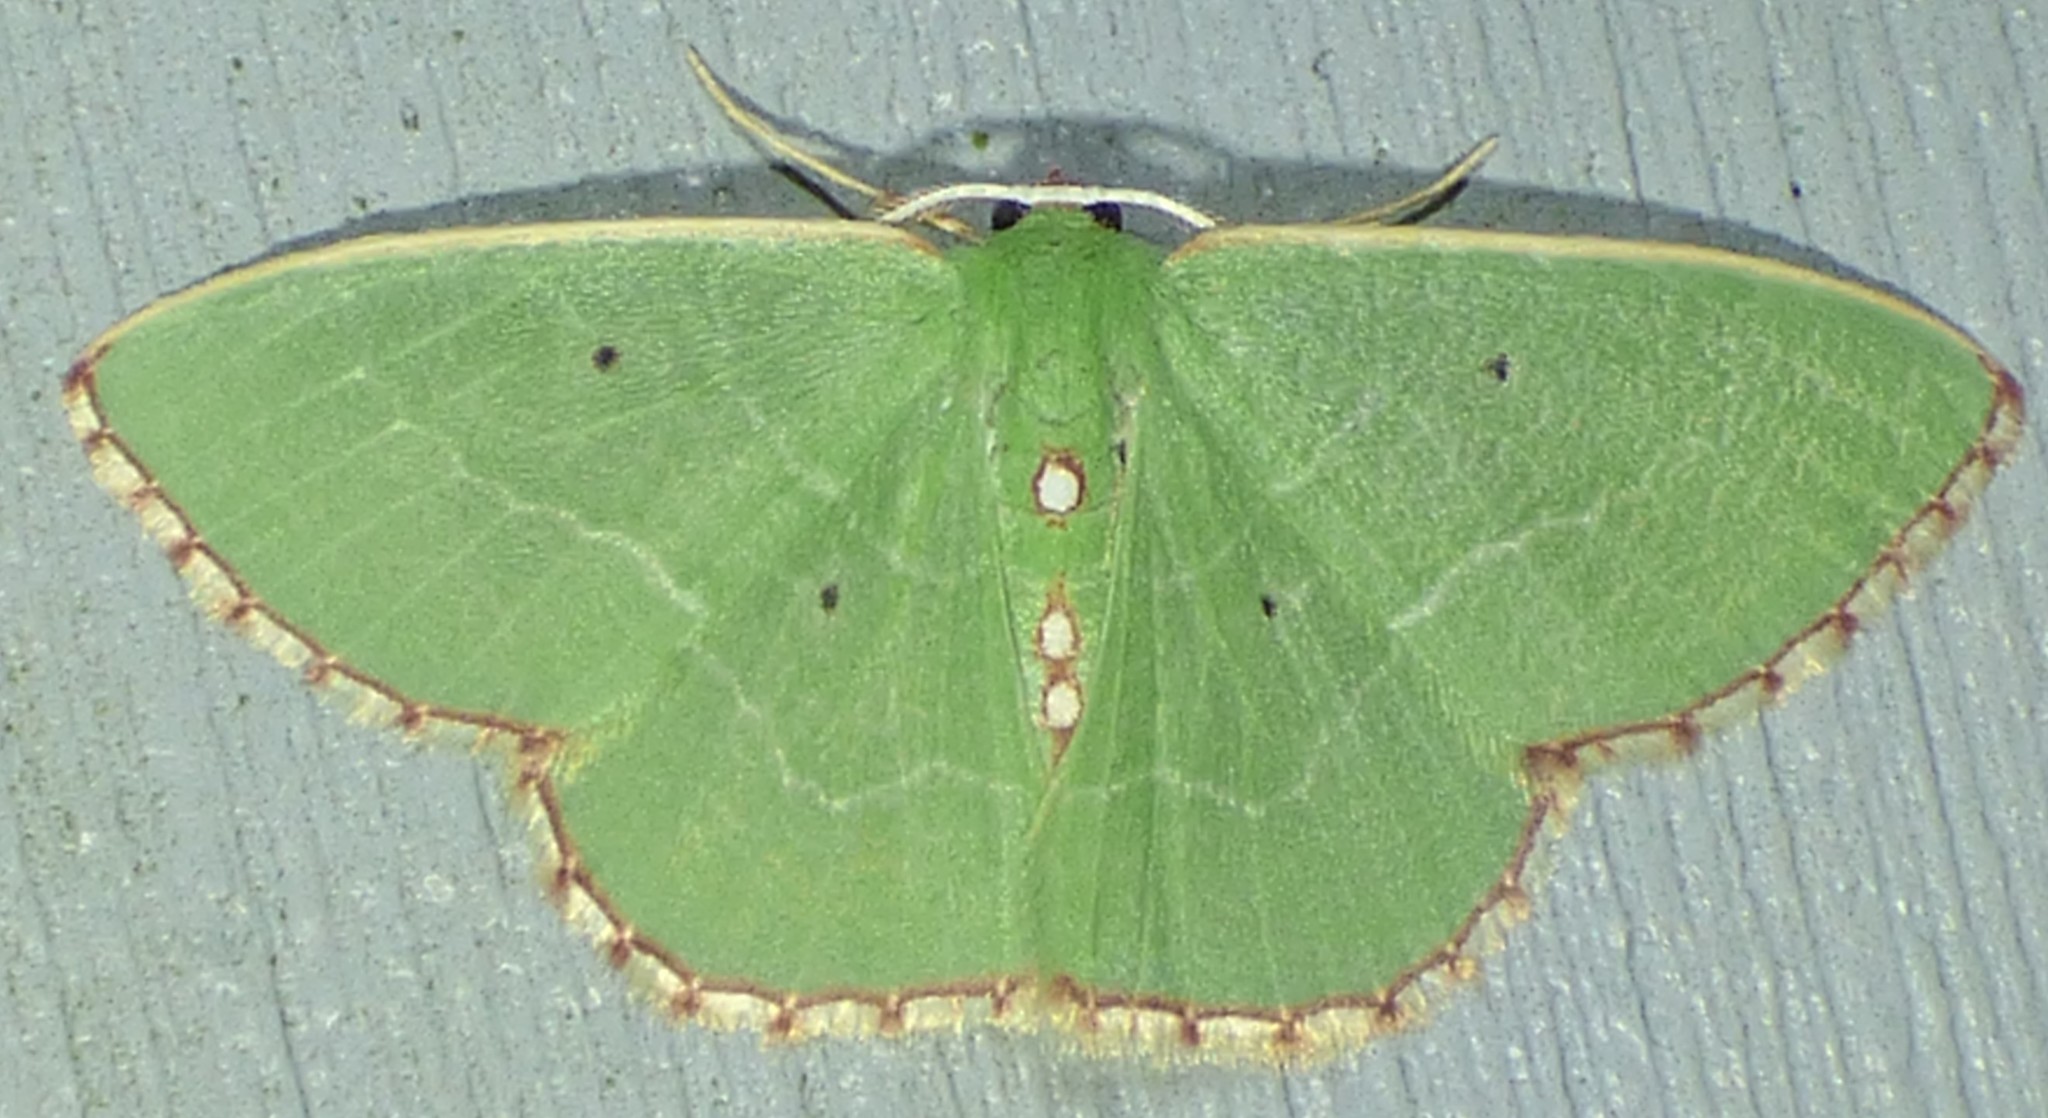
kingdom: Animalia
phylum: Arthropoda
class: Insecta
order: Lepidoptera
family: Geometridae
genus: Nemoria
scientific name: Nemoria lixaria
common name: Red-bordered emerald
